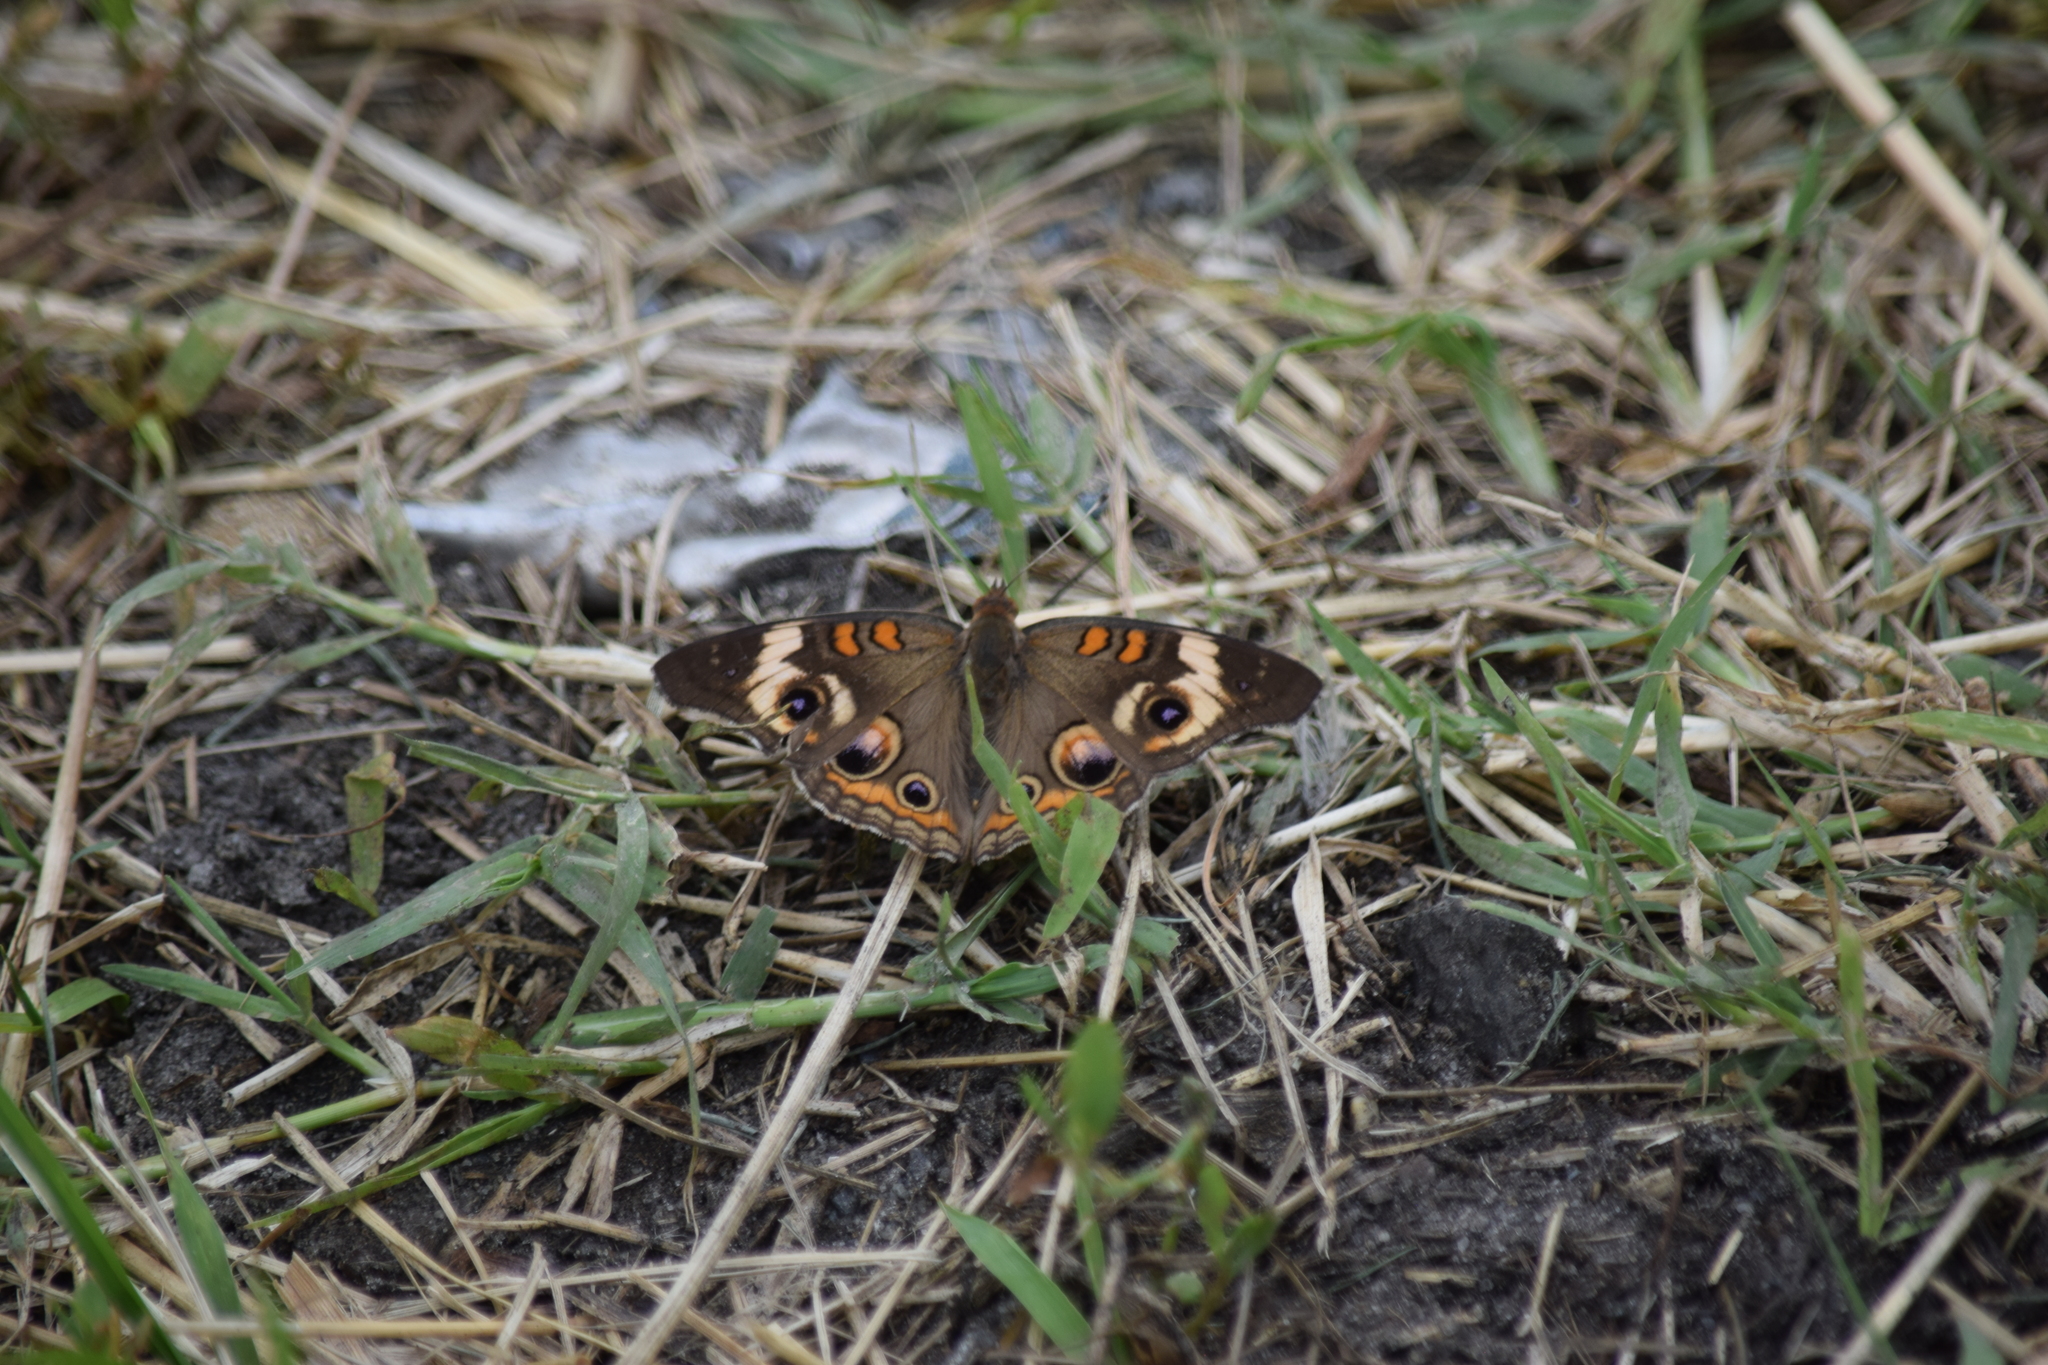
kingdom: Animalia
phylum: Arthropoda
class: Insecta
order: Lepidoptera
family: Nymphalidae
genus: Junonia
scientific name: Junonia coenia
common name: Common buckeye
